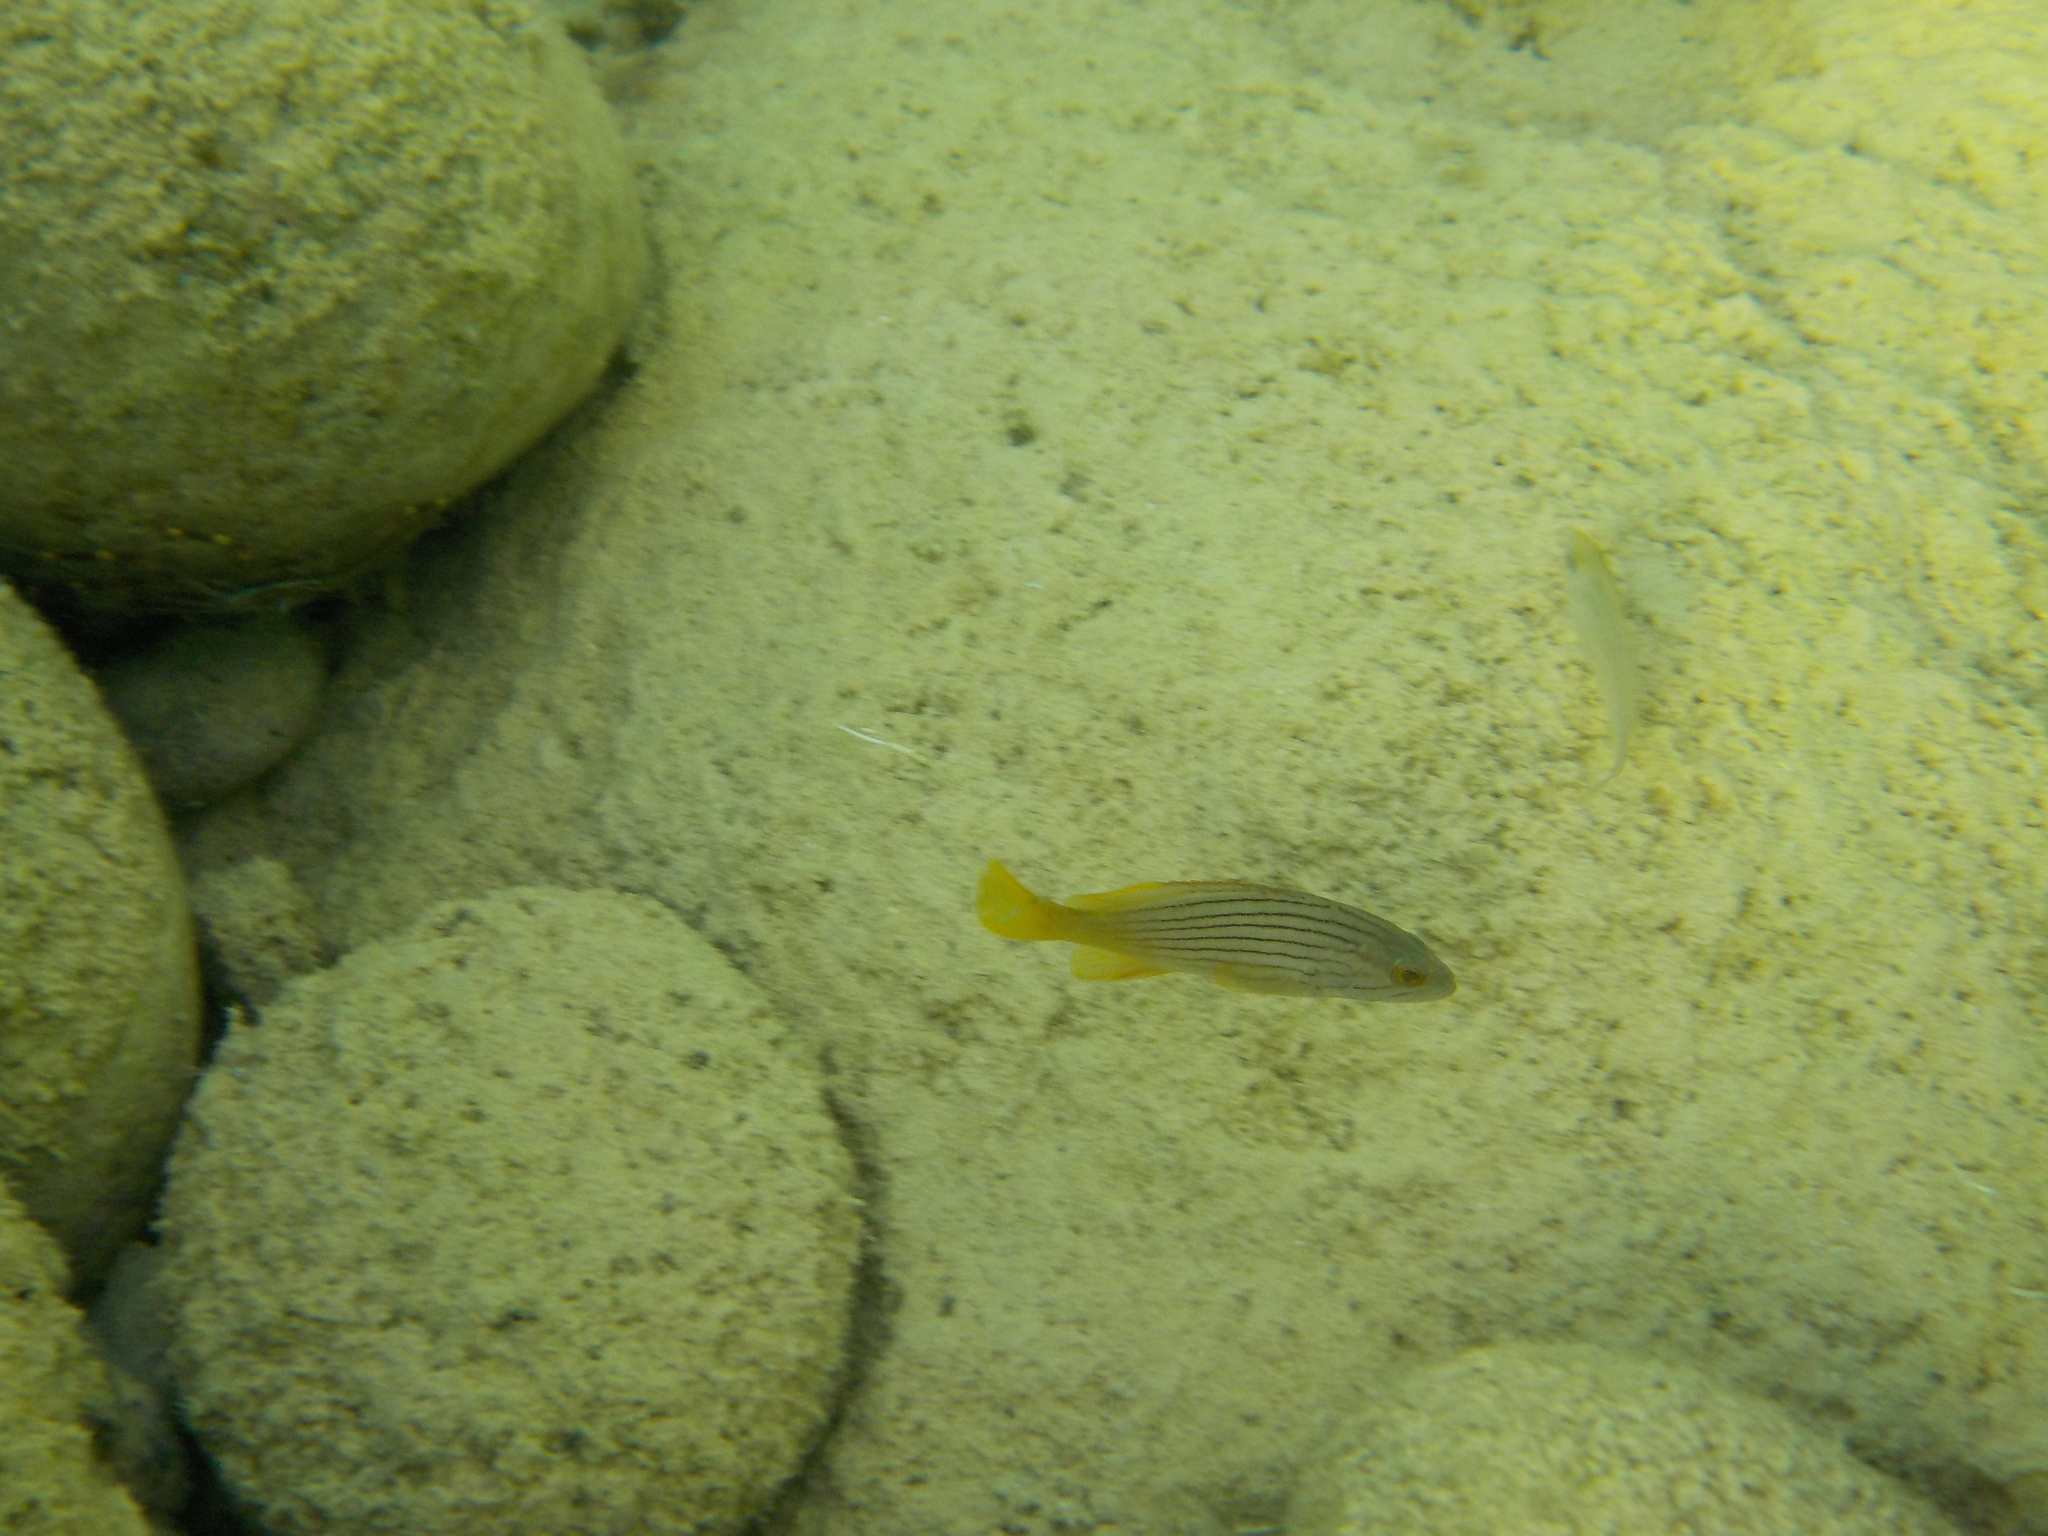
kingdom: Animalia
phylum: Chordata
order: Perciformes
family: Serranidae
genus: Epinephelus
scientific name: Epinephelus costae
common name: Goldblotch grouper
